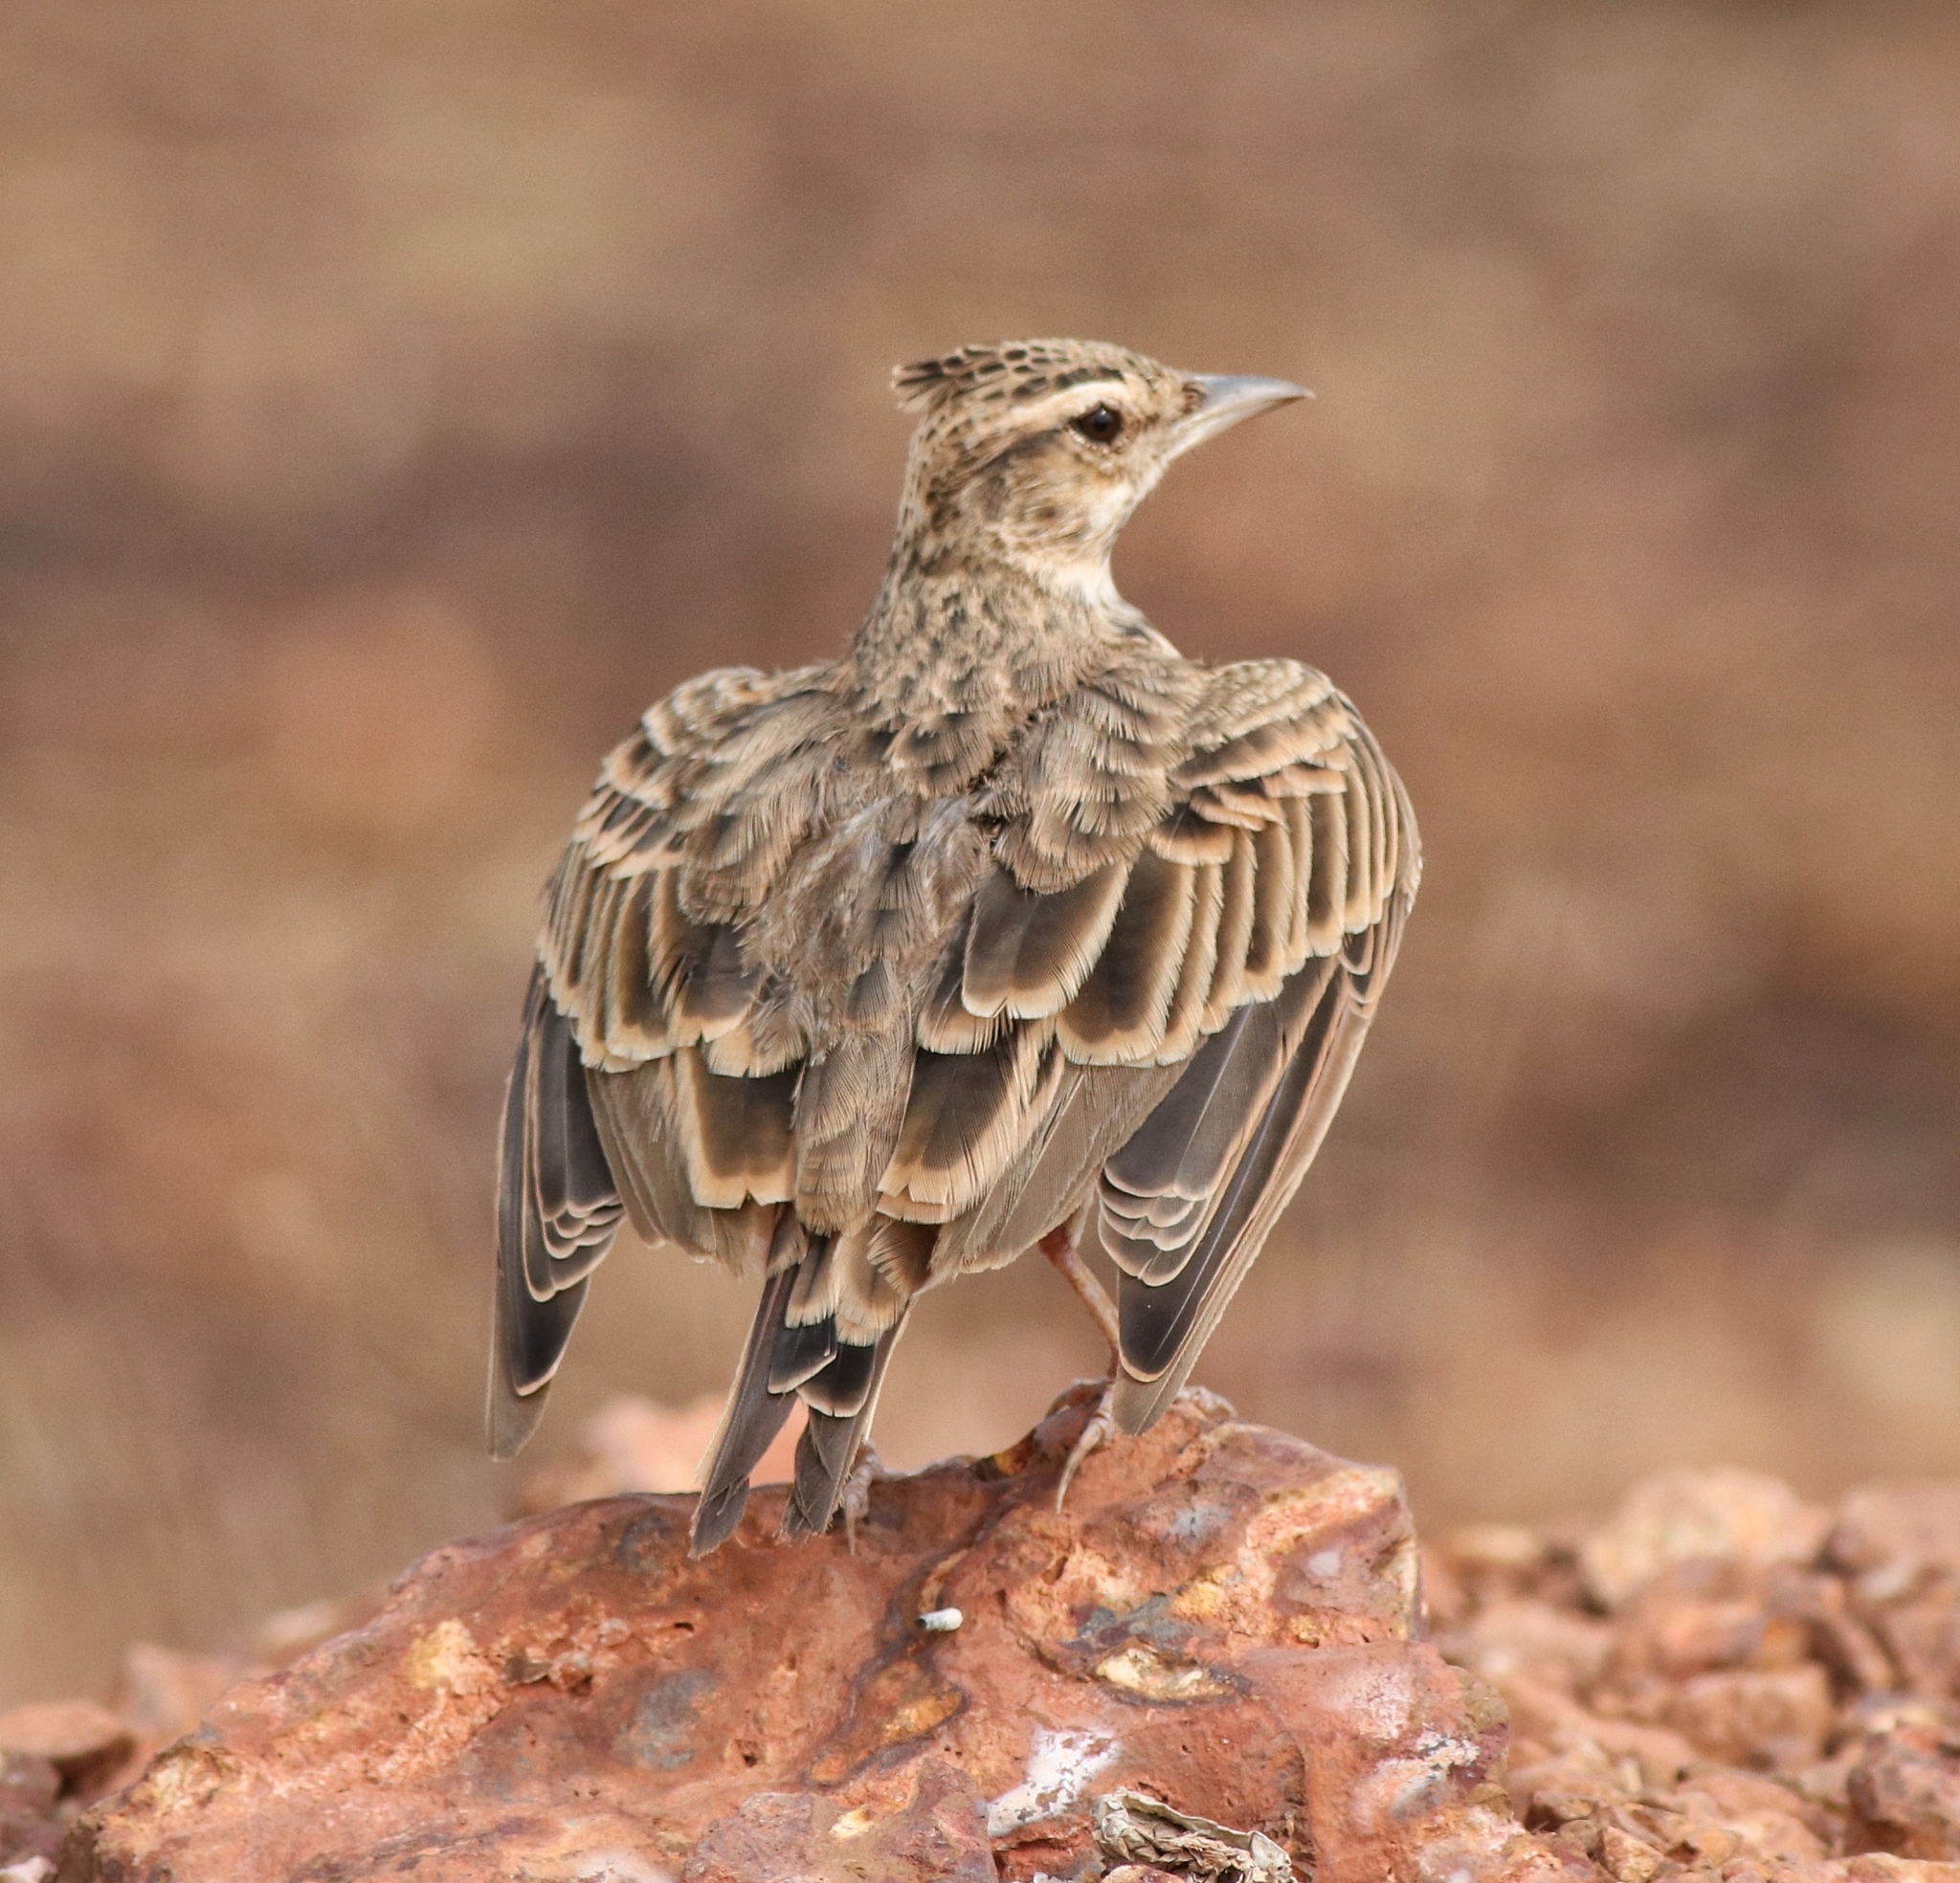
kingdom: Animalia
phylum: Chordata
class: Aves
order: Passeriformes
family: Alaudidae
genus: Galerida
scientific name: Galerida malabarica
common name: Malabar lark
